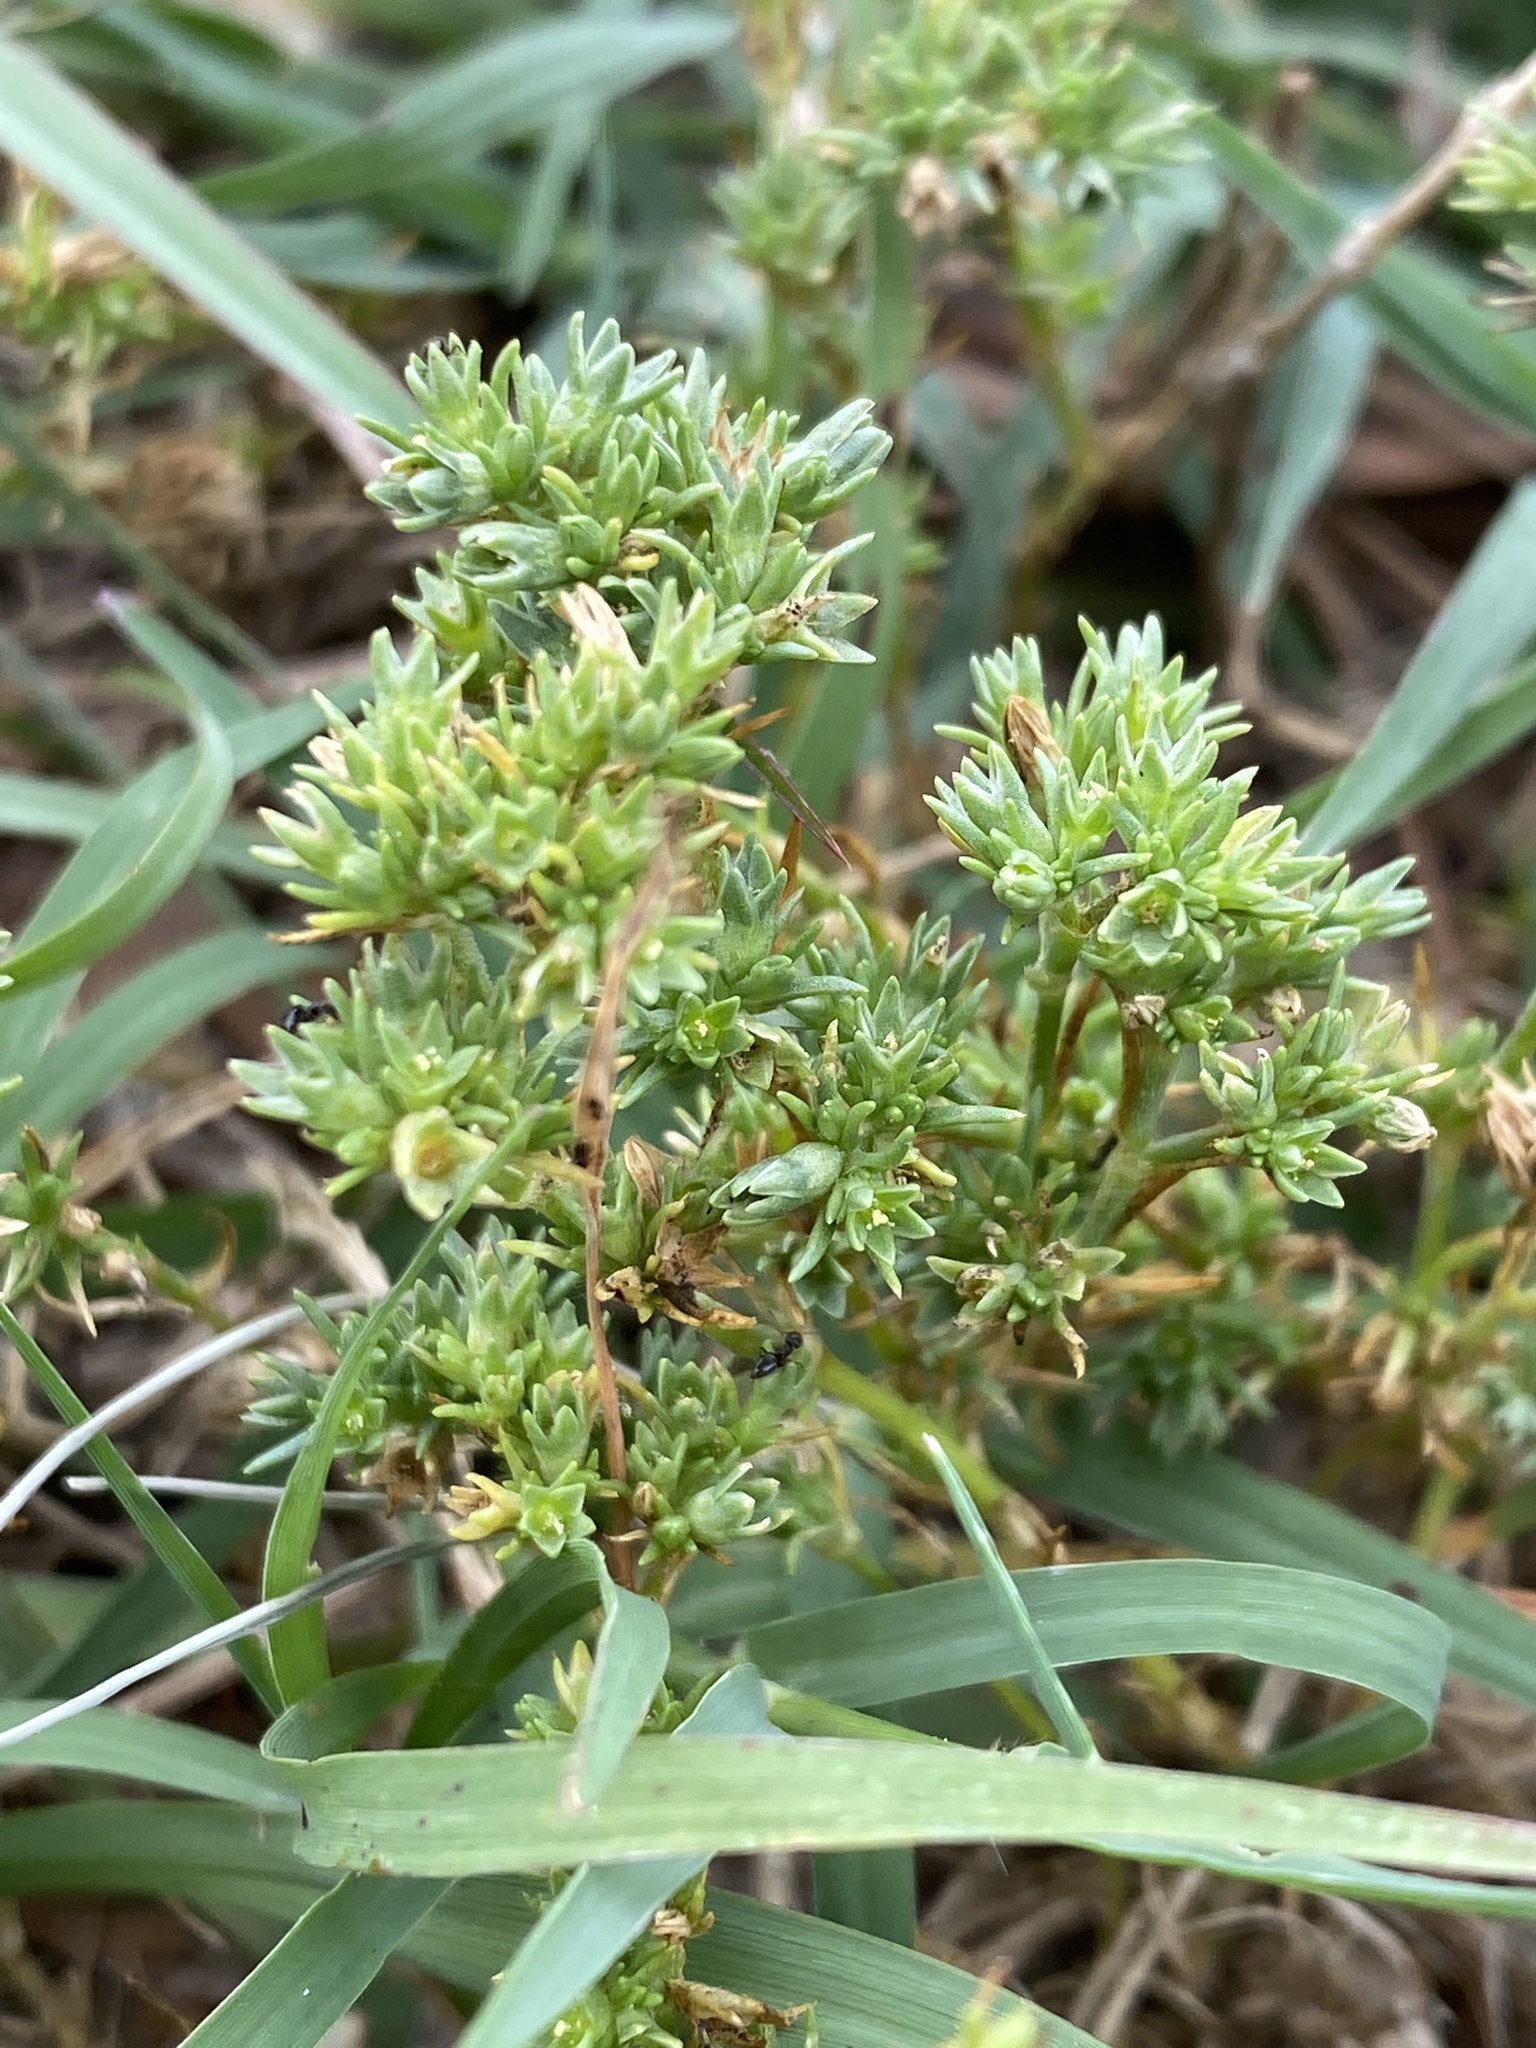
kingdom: Plantae
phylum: Tracheophyta
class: Magnoliopsida
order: Caryophyllales
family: Caryophyllaceae
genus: Scleranthus
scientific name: Scleranthus annuus
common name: Annual knawel
